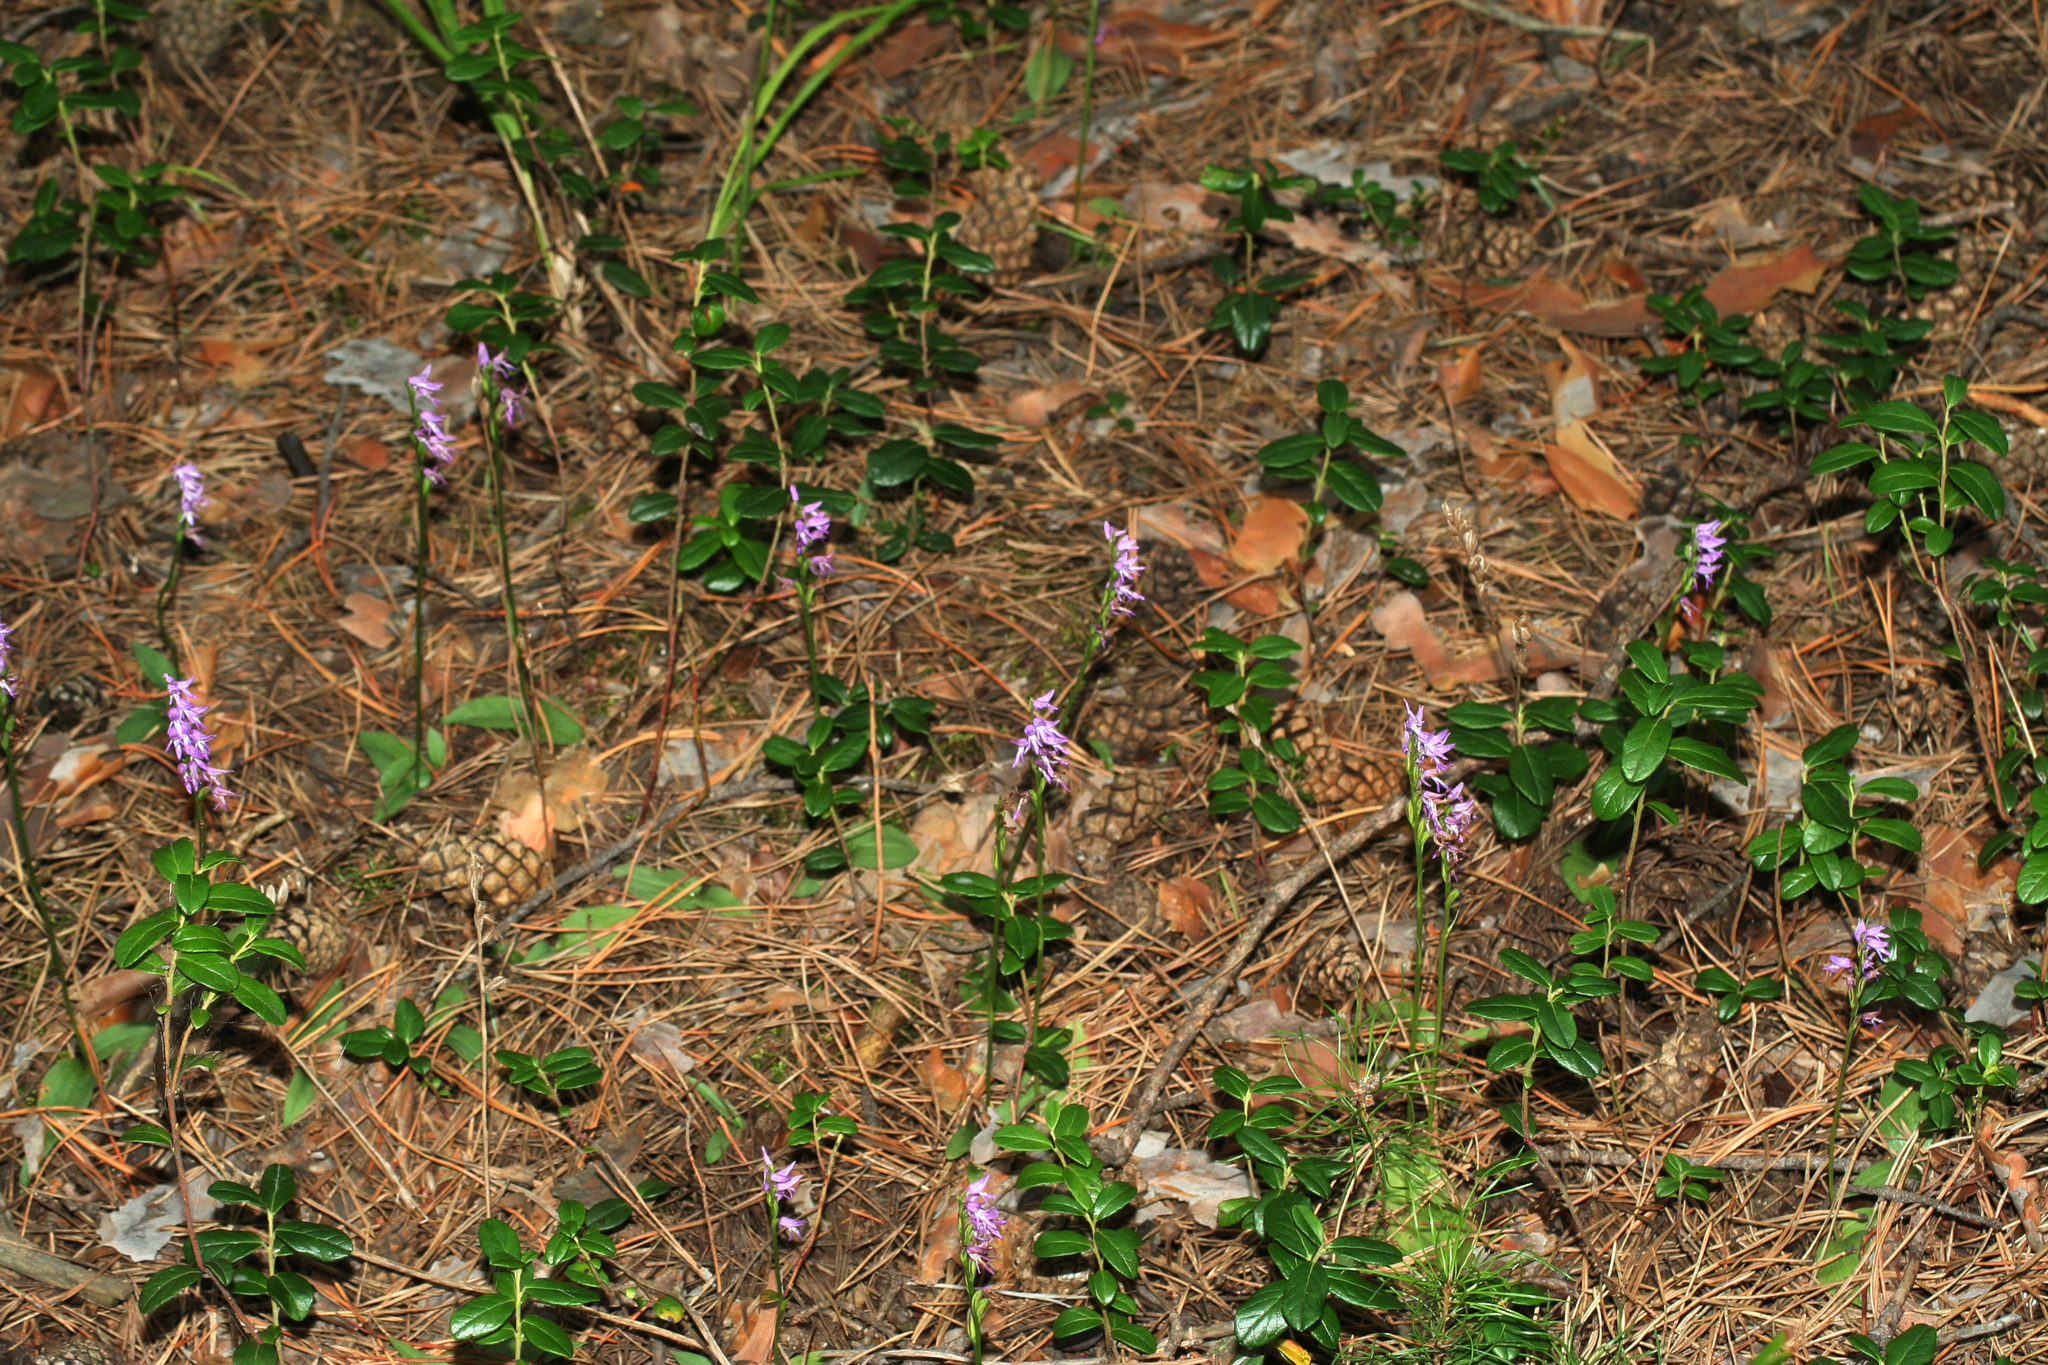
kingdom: Plantae
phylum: Tracheophyta
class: Liliopsida
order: Asparagales
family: Orchidaceae
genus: Hemipilia
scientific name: Hemipilia cucullata
